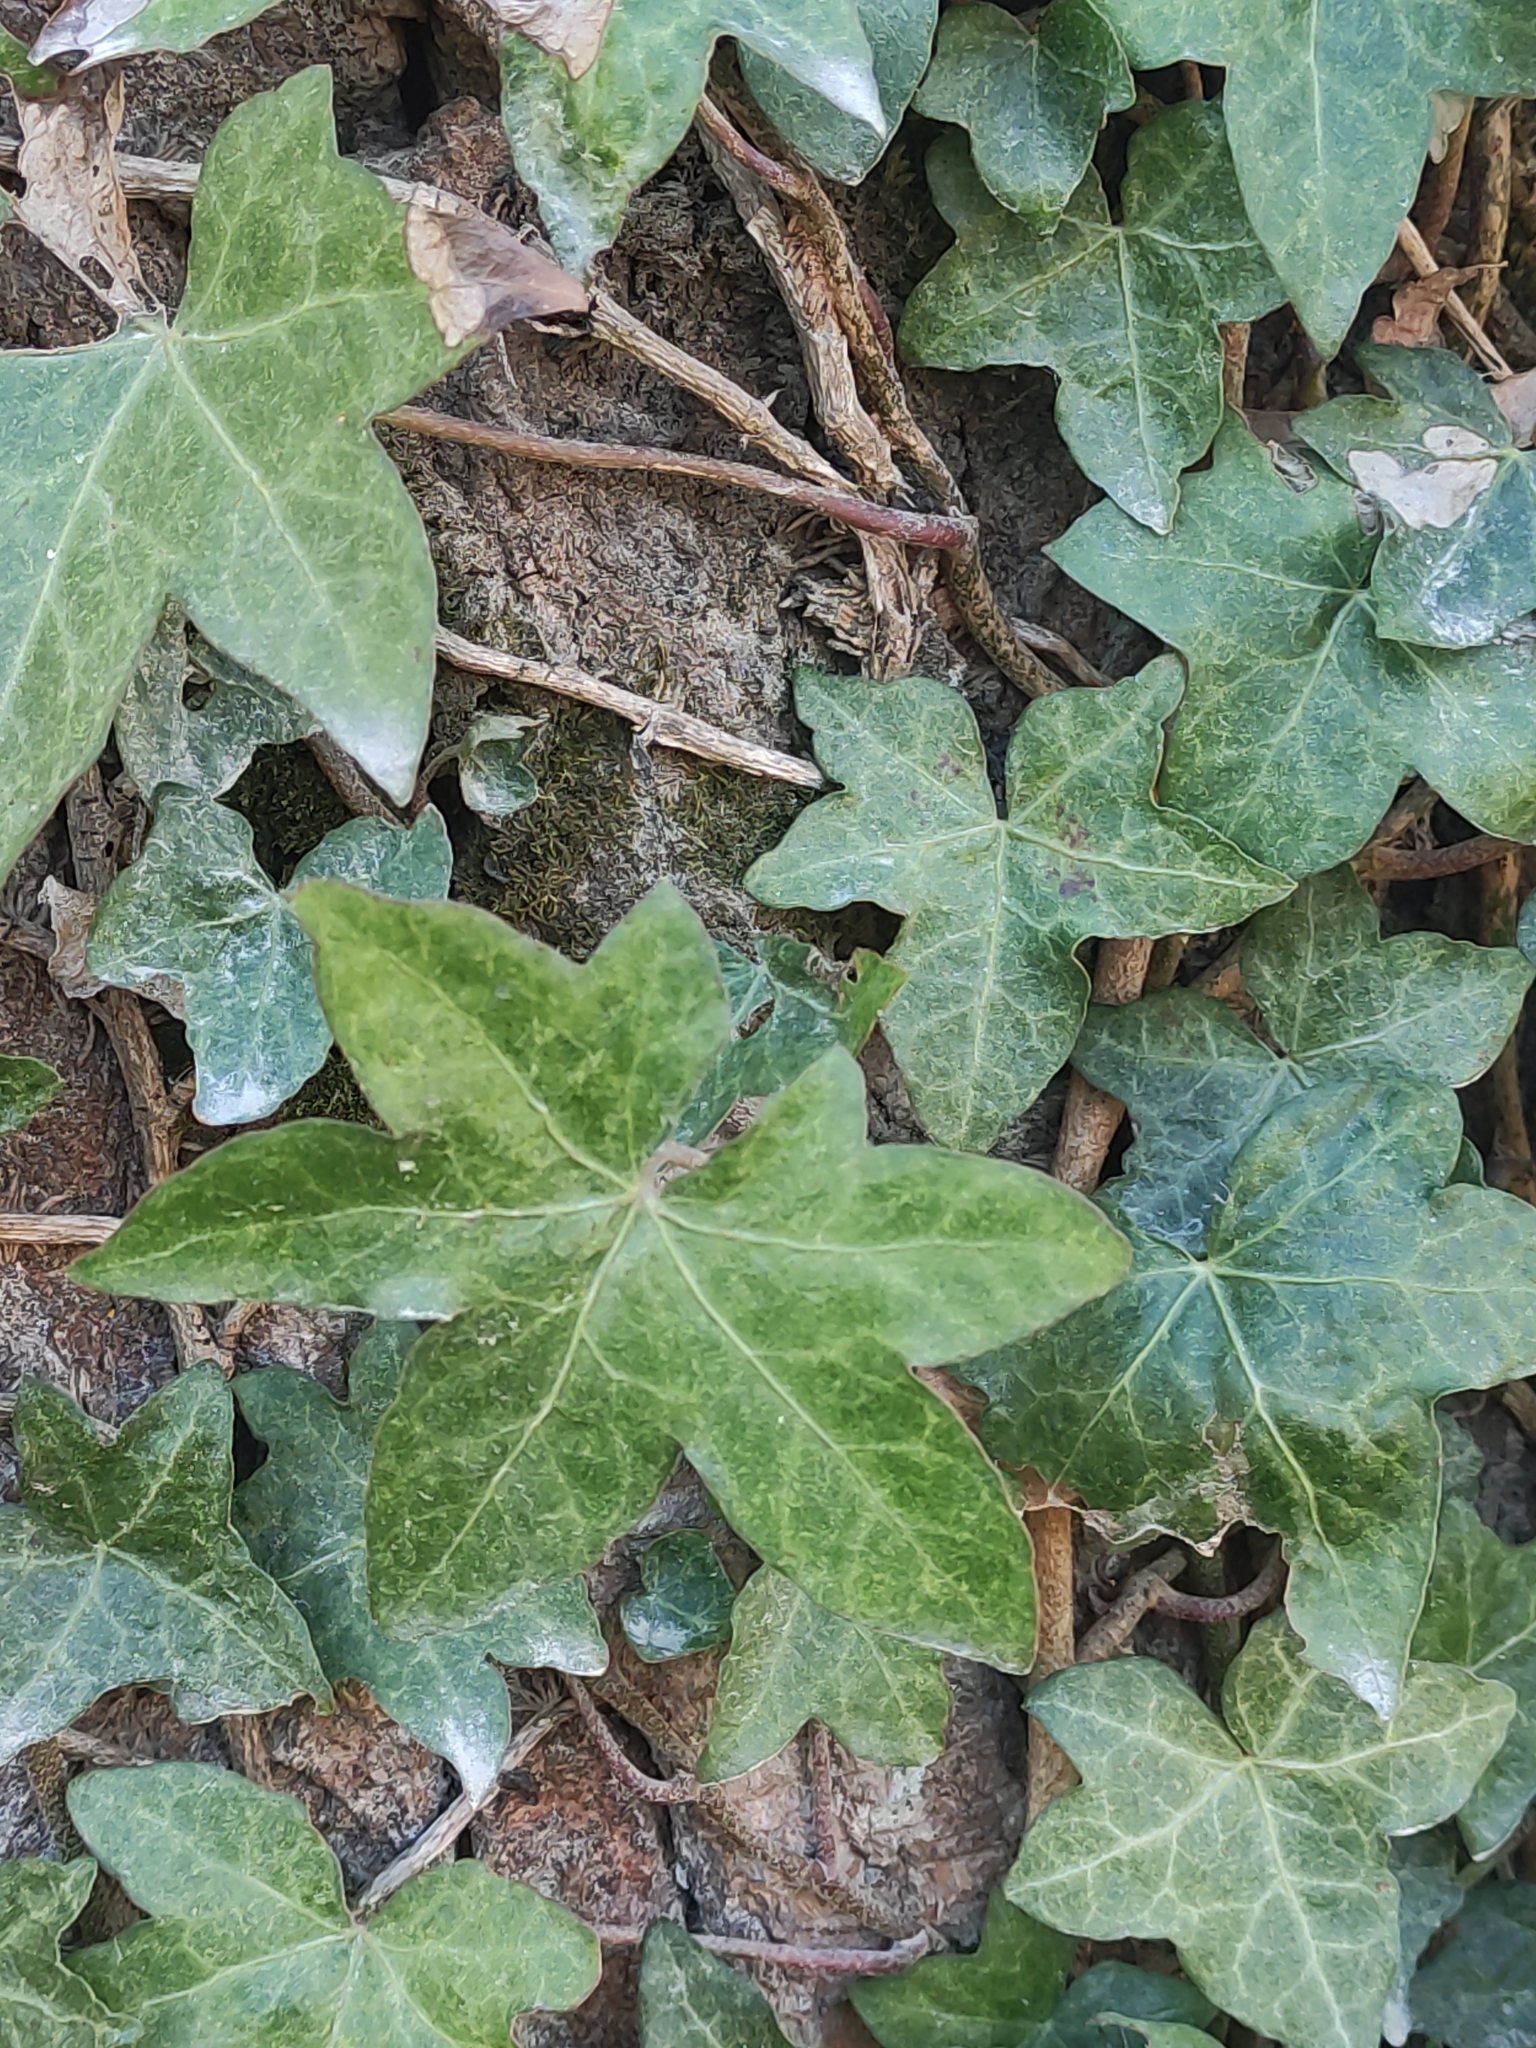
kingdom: Plantae
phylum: Tracheophyta
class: Magnoliopsida
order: Apiales
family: Araliaceae
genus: Hedera
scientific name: Hedera helix
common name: Ivy
